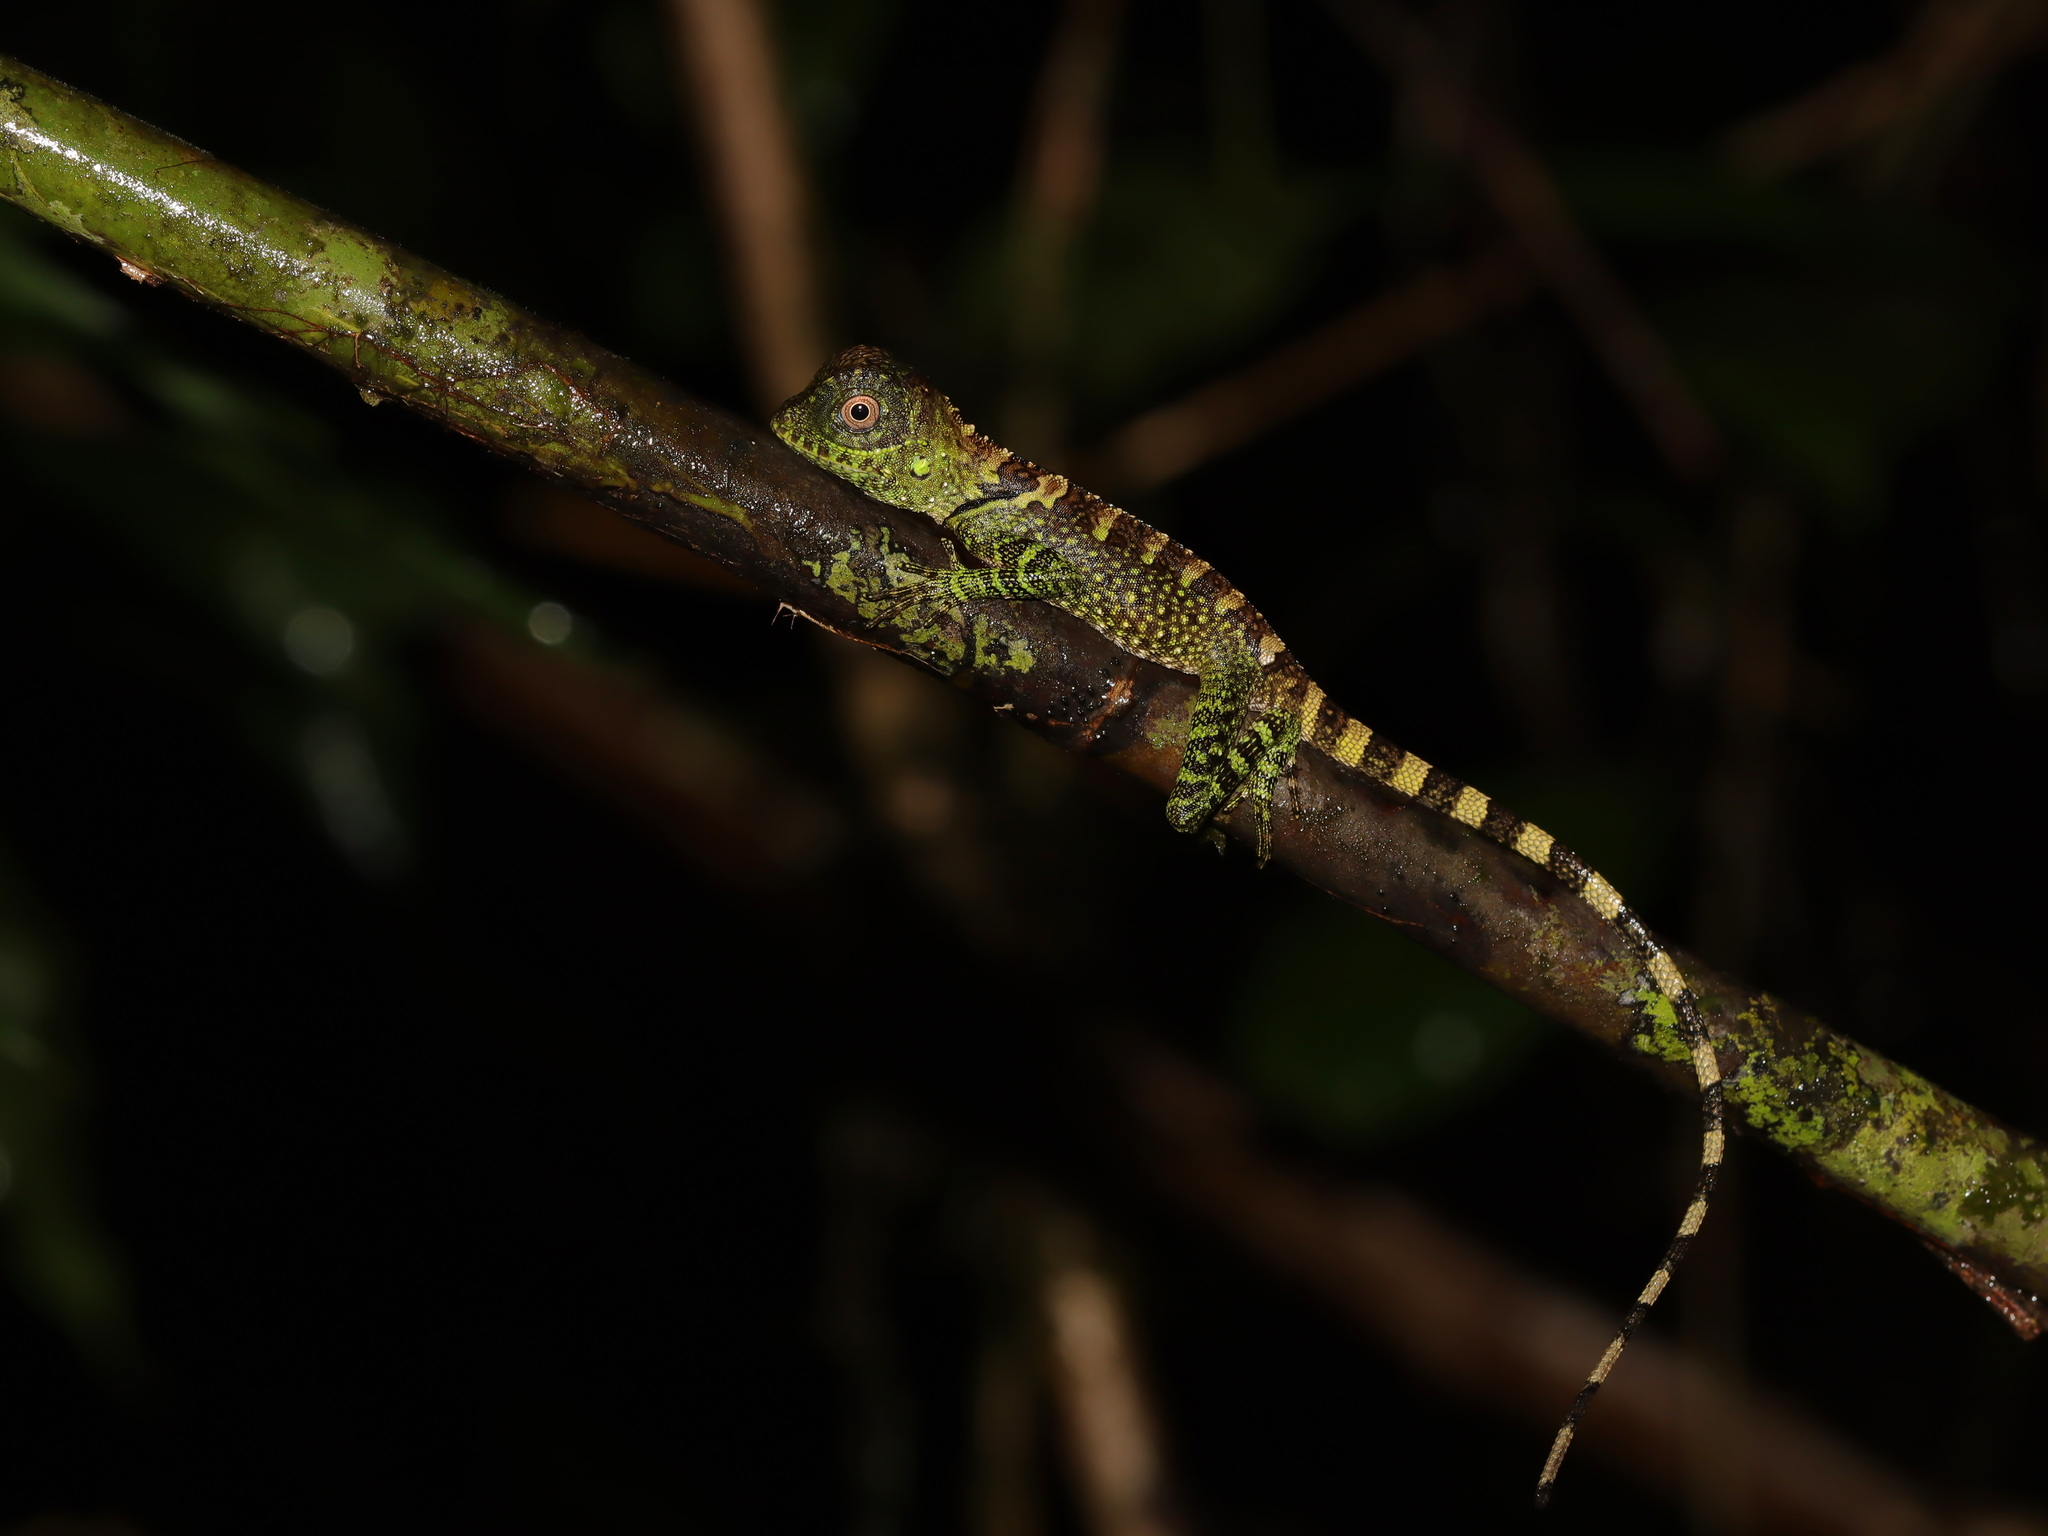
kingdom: Animalia
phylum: Chordata
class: Squamata
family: Agamidae
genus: Gonocephalus
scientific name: Gonocephalus liogaster
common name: Blue-eyed anglehead lizard
